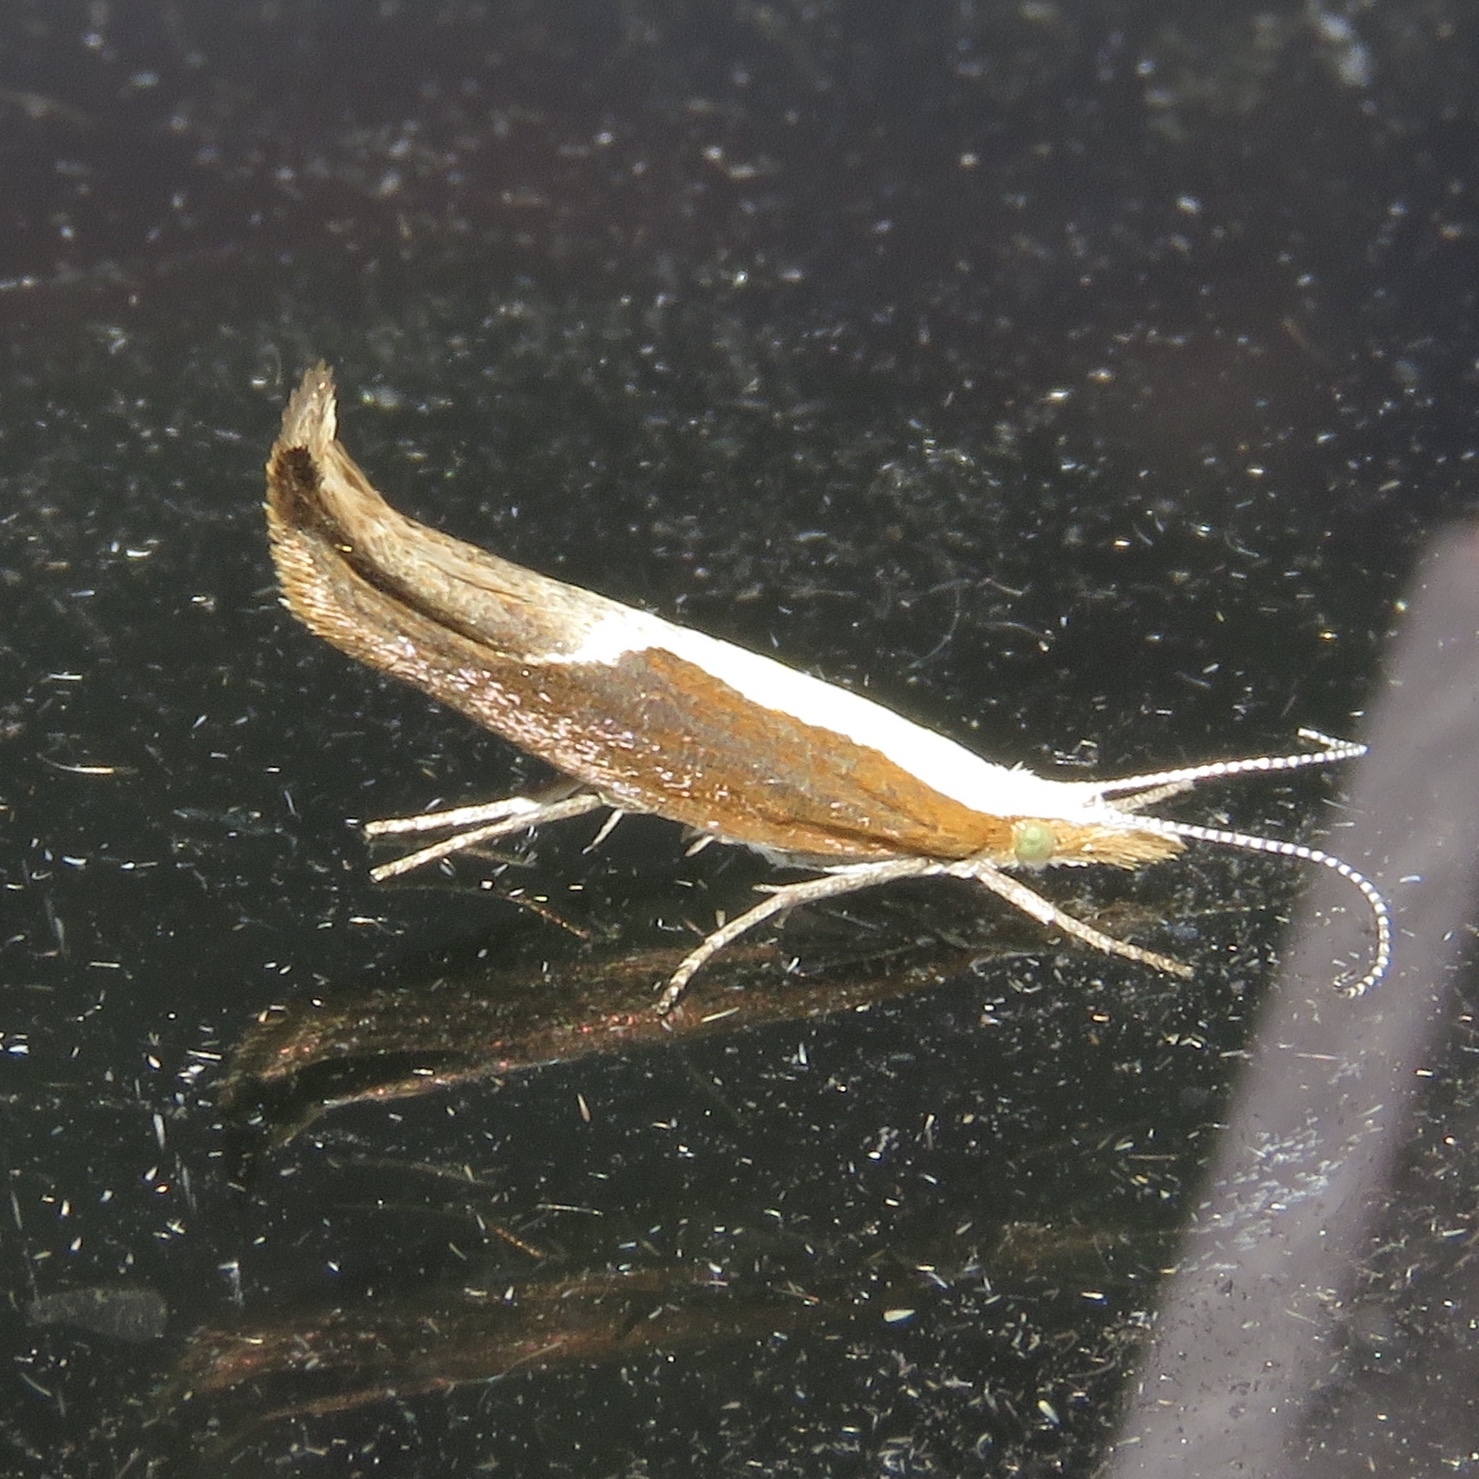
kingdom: Animalia
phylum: Arthropoda
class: Insecta
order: Lepidoptera
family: Ypsolophidae
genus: Ypsolopha
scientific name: Ypsolopha dentella
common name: Honeysuckle moth
